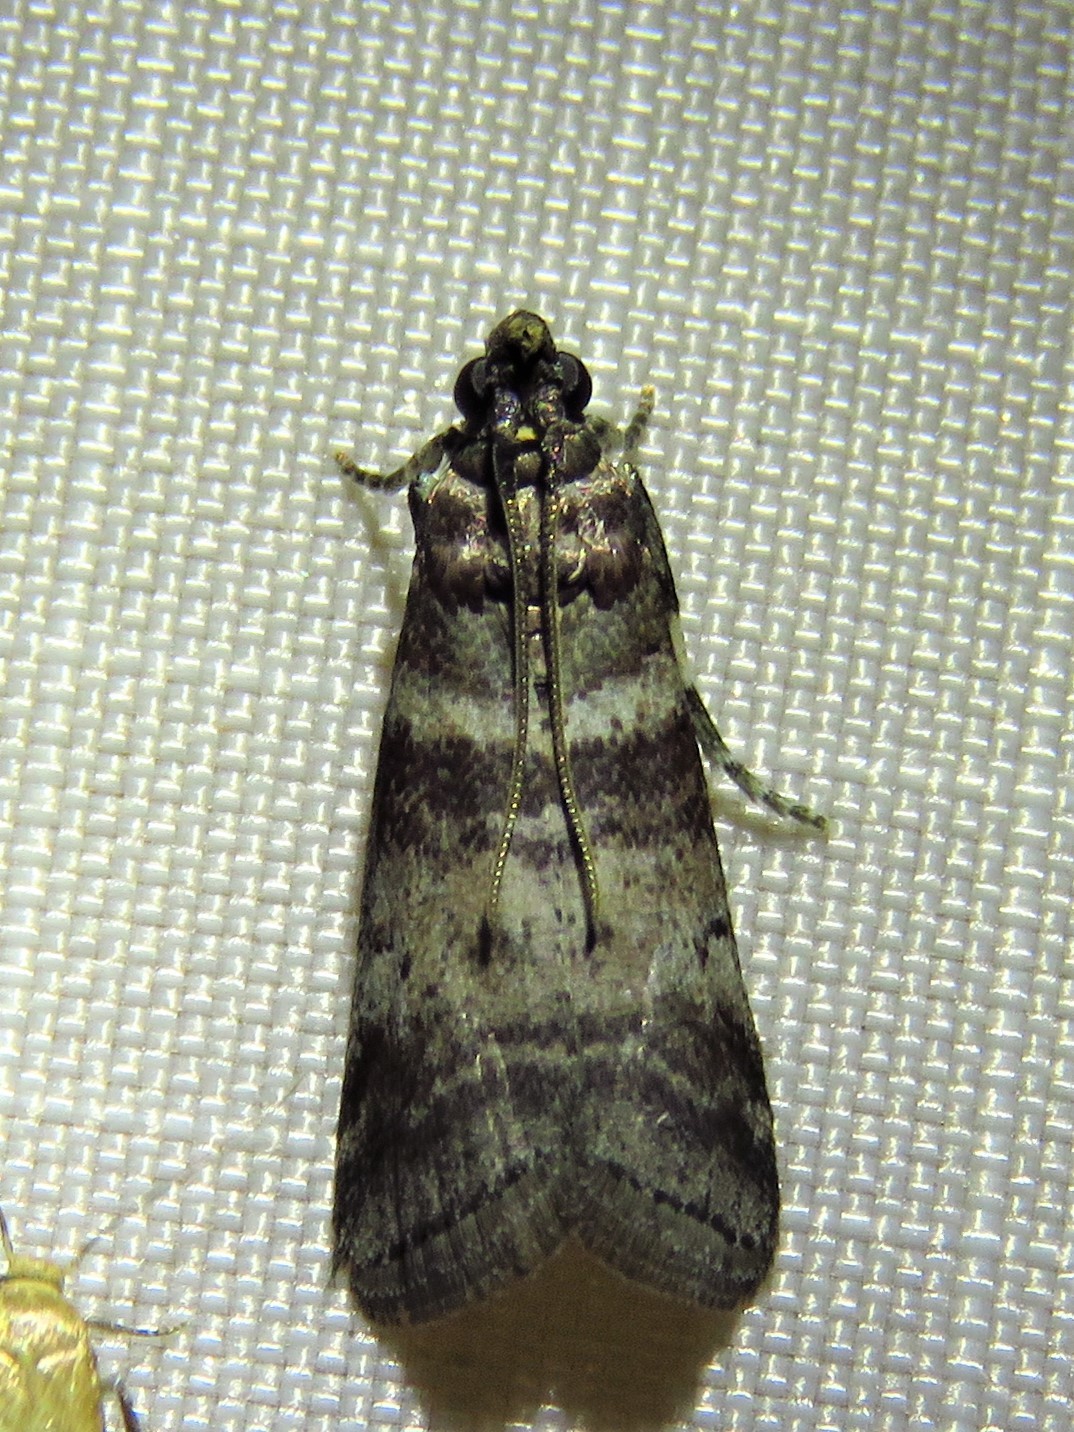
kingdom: Animalia
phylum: Arthropoda
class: Insecta
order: Lepidoptera
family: Pyralidae
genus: Sciota
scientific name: Sciota uvinella
